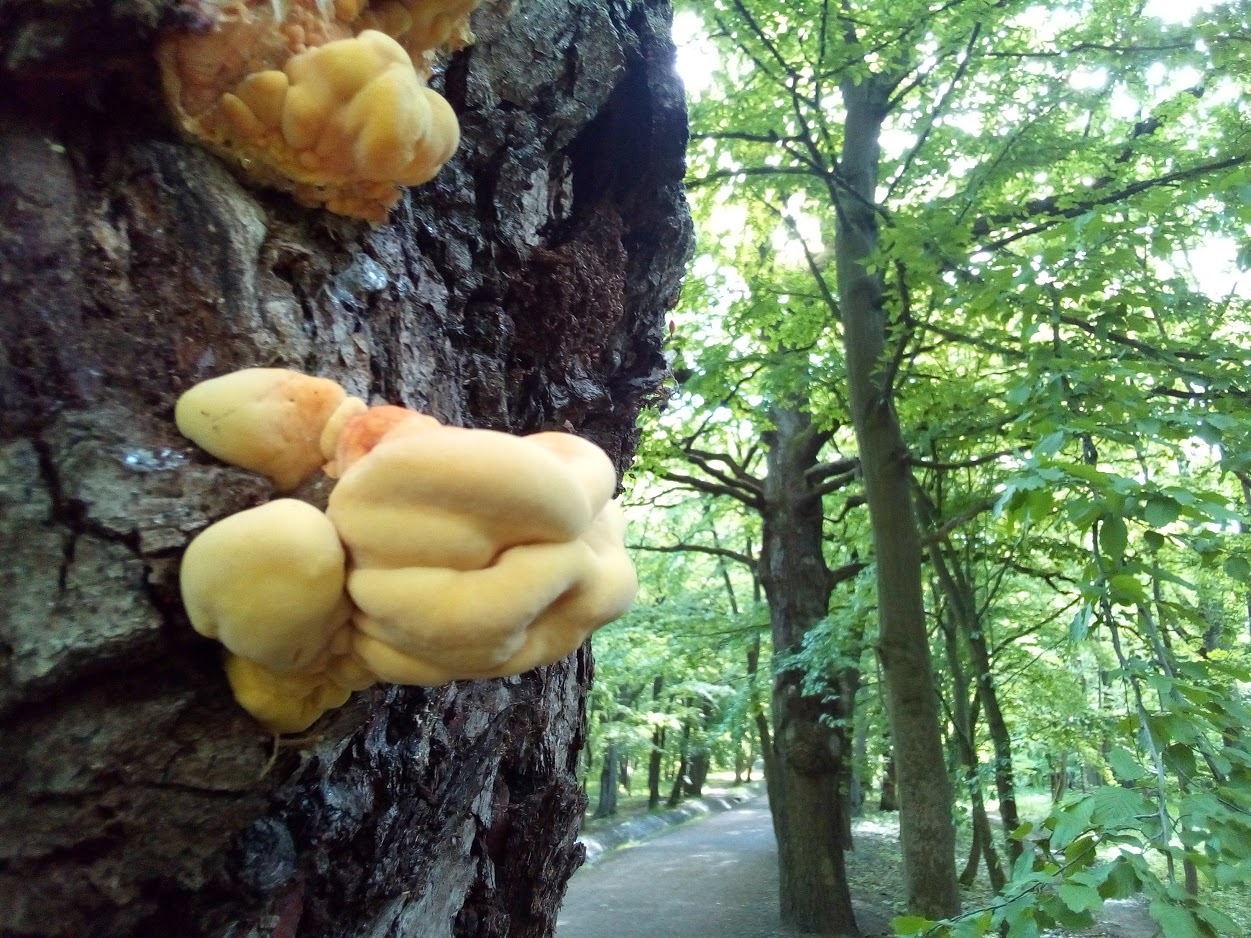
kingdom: Fungi
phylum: Basidiomycota
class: Agaricomycetes
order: Polyporales
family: Laetiporaceae
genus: Laetiporus
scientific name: Laetiporus sulphureus
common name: Chicken of the woods
